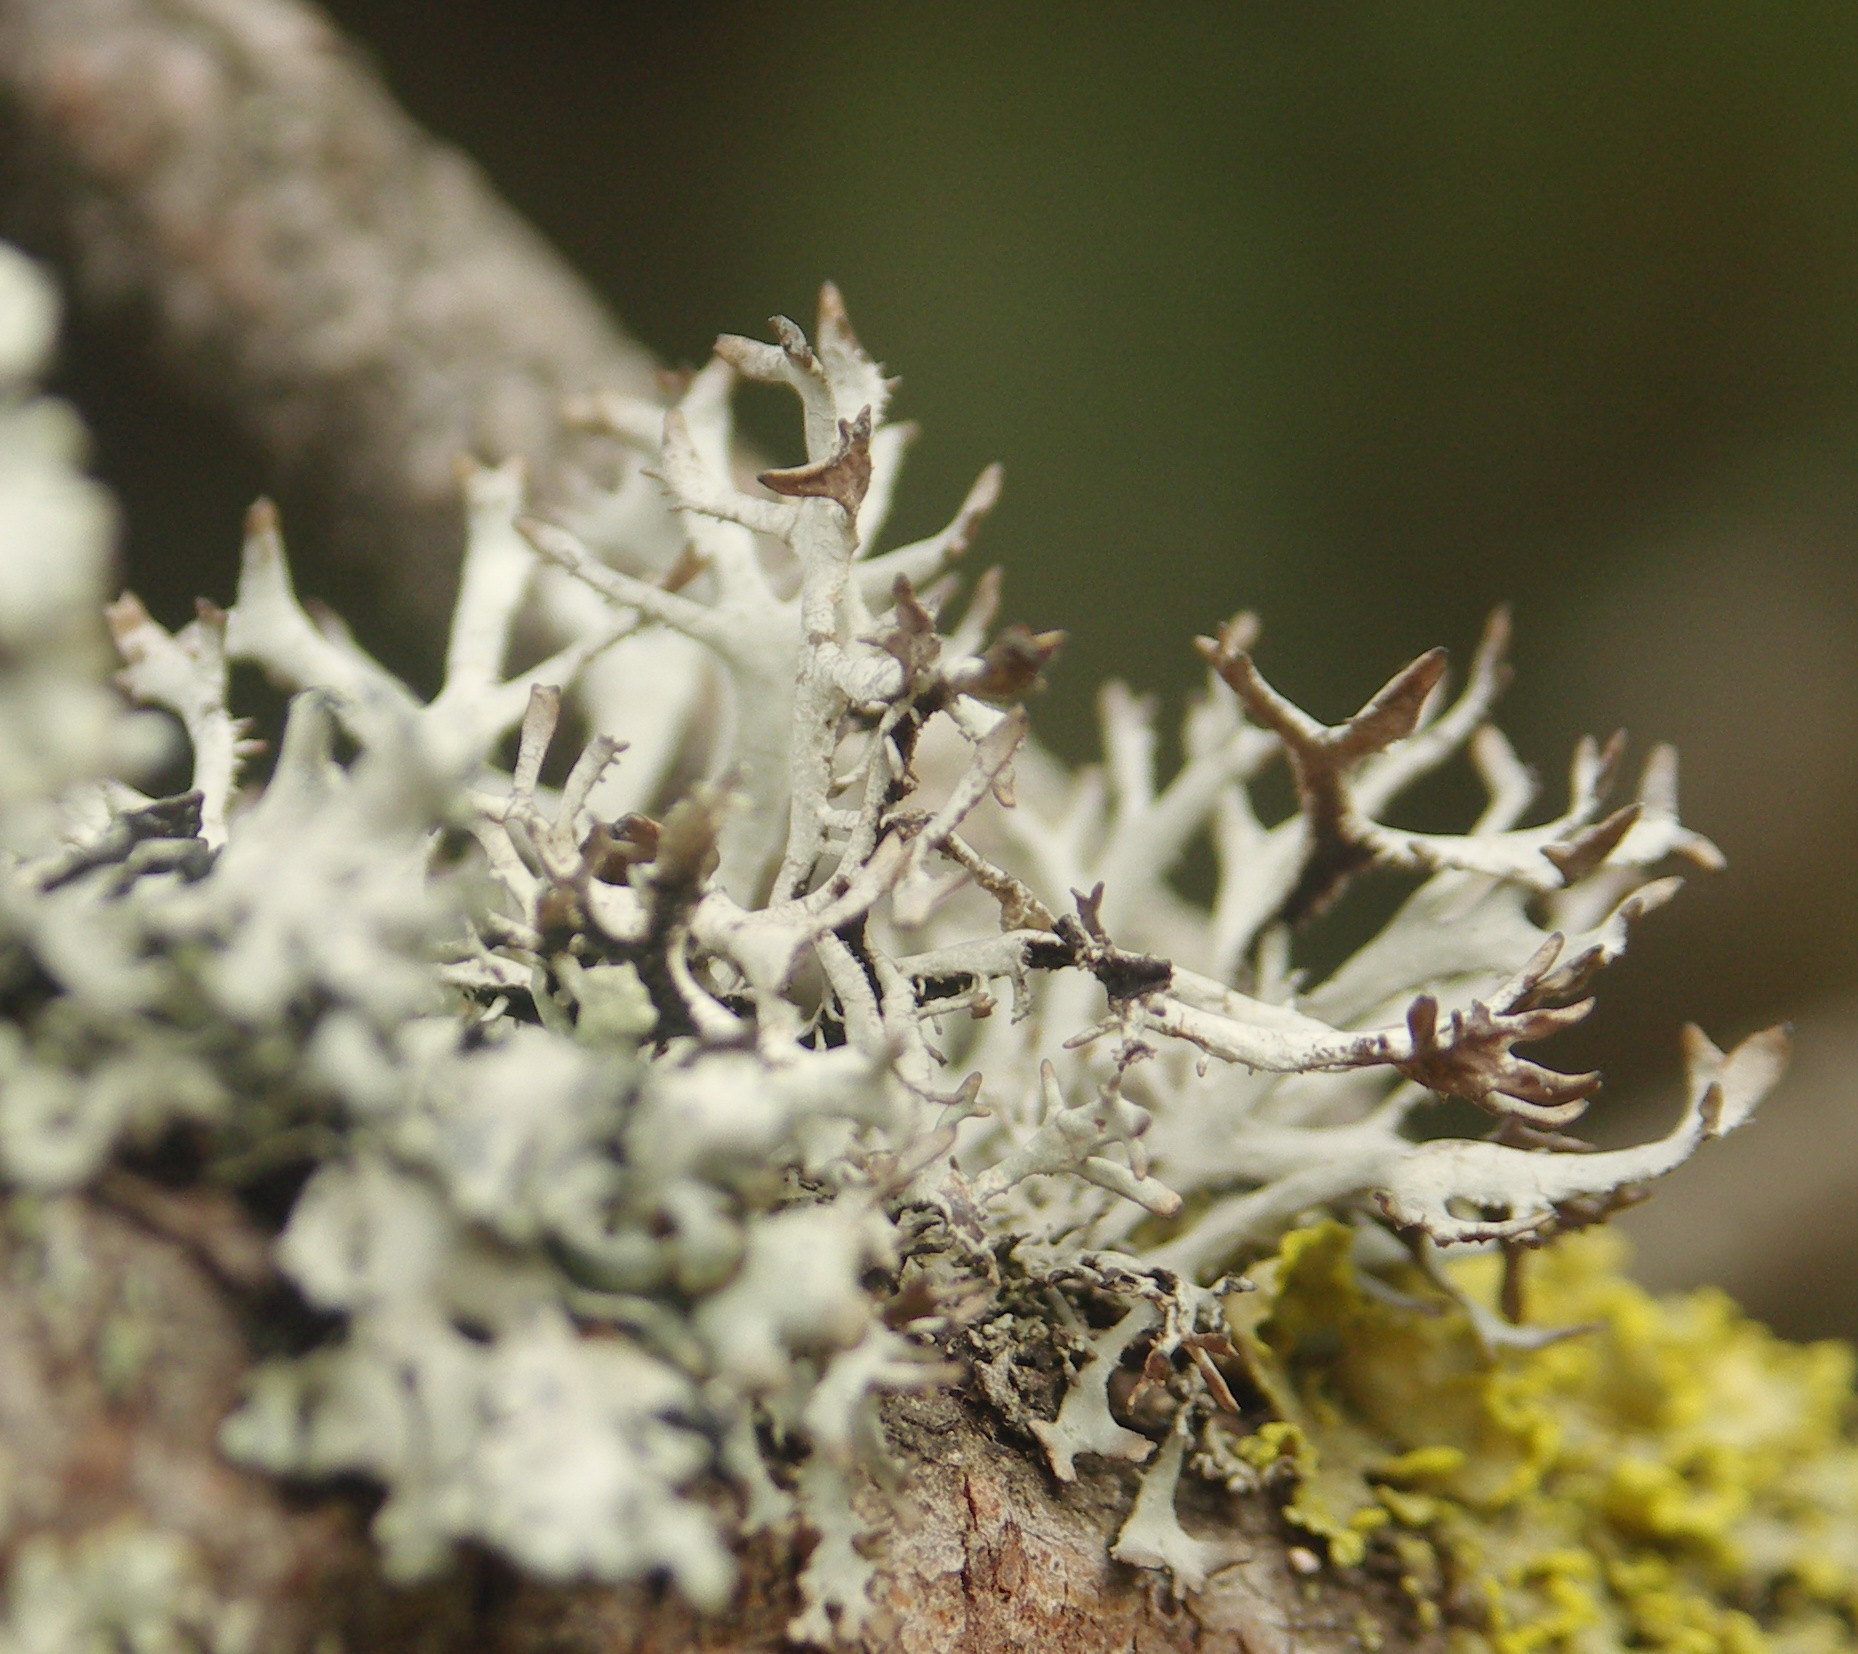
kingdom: Fungi
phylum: Ascomycota
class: Lecanoromycetes
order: Lecanorales
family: Parmeliaceae
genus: Pseudevernia
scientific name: Pseudevernia furfuracea
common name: Tree moss
